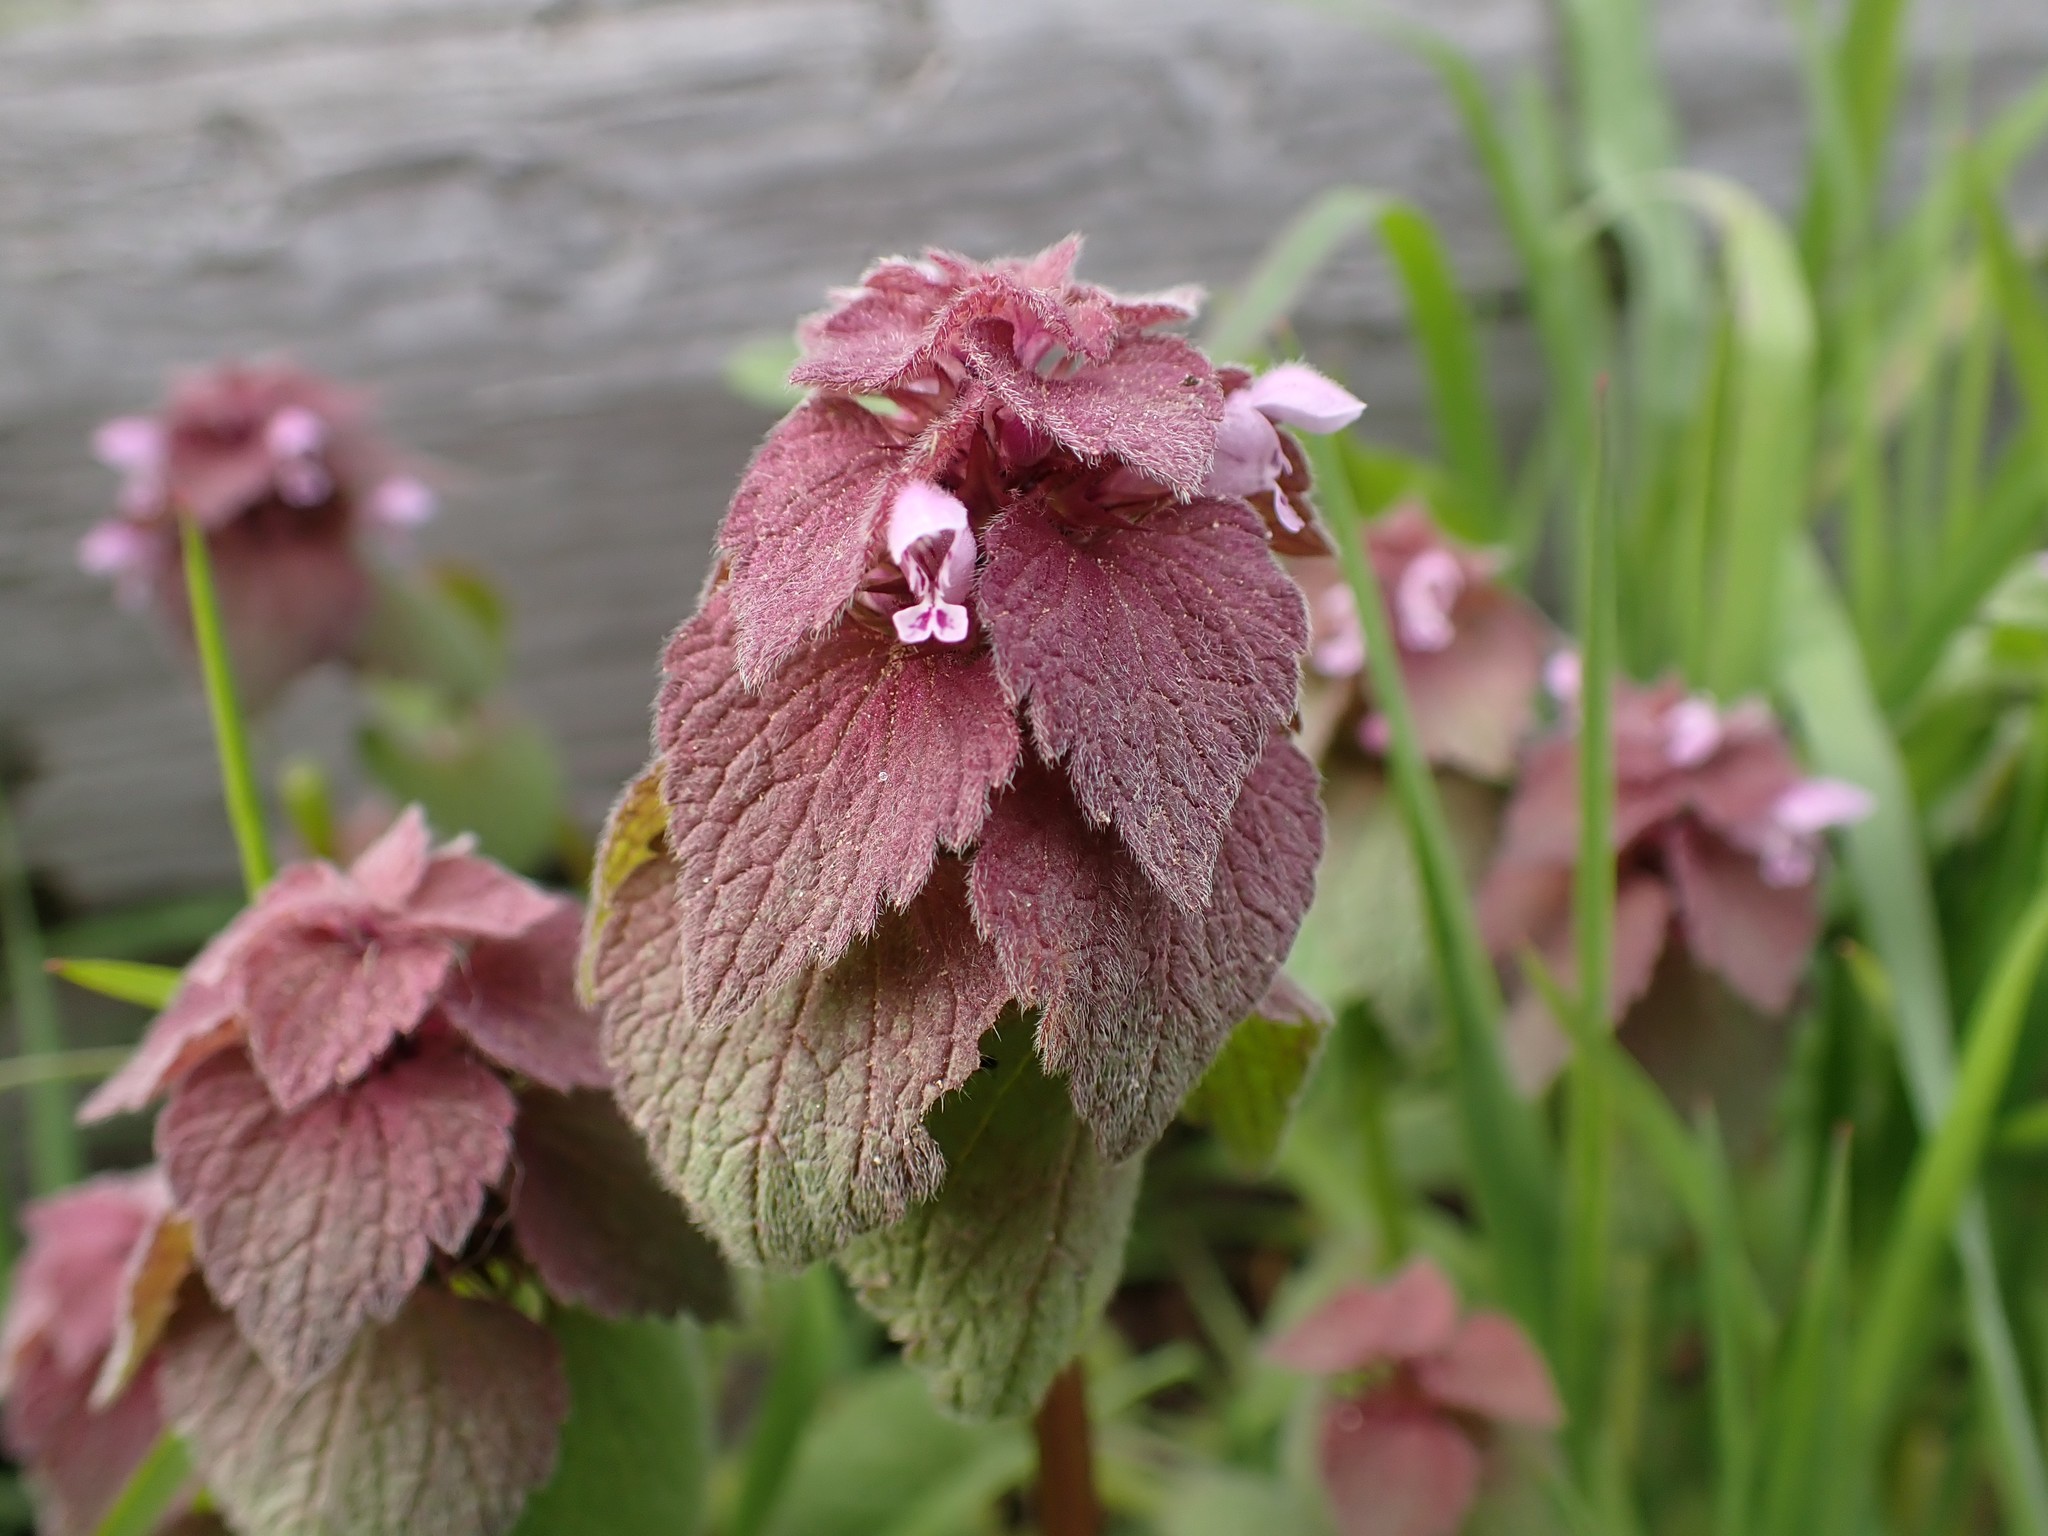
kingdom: Plantae
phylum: Tracheophyta
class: Magnoliopsida
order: Lamiales
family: Lamiaceae
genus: Lamium
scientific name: Lamium purpureum
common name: Red dead-nettle
